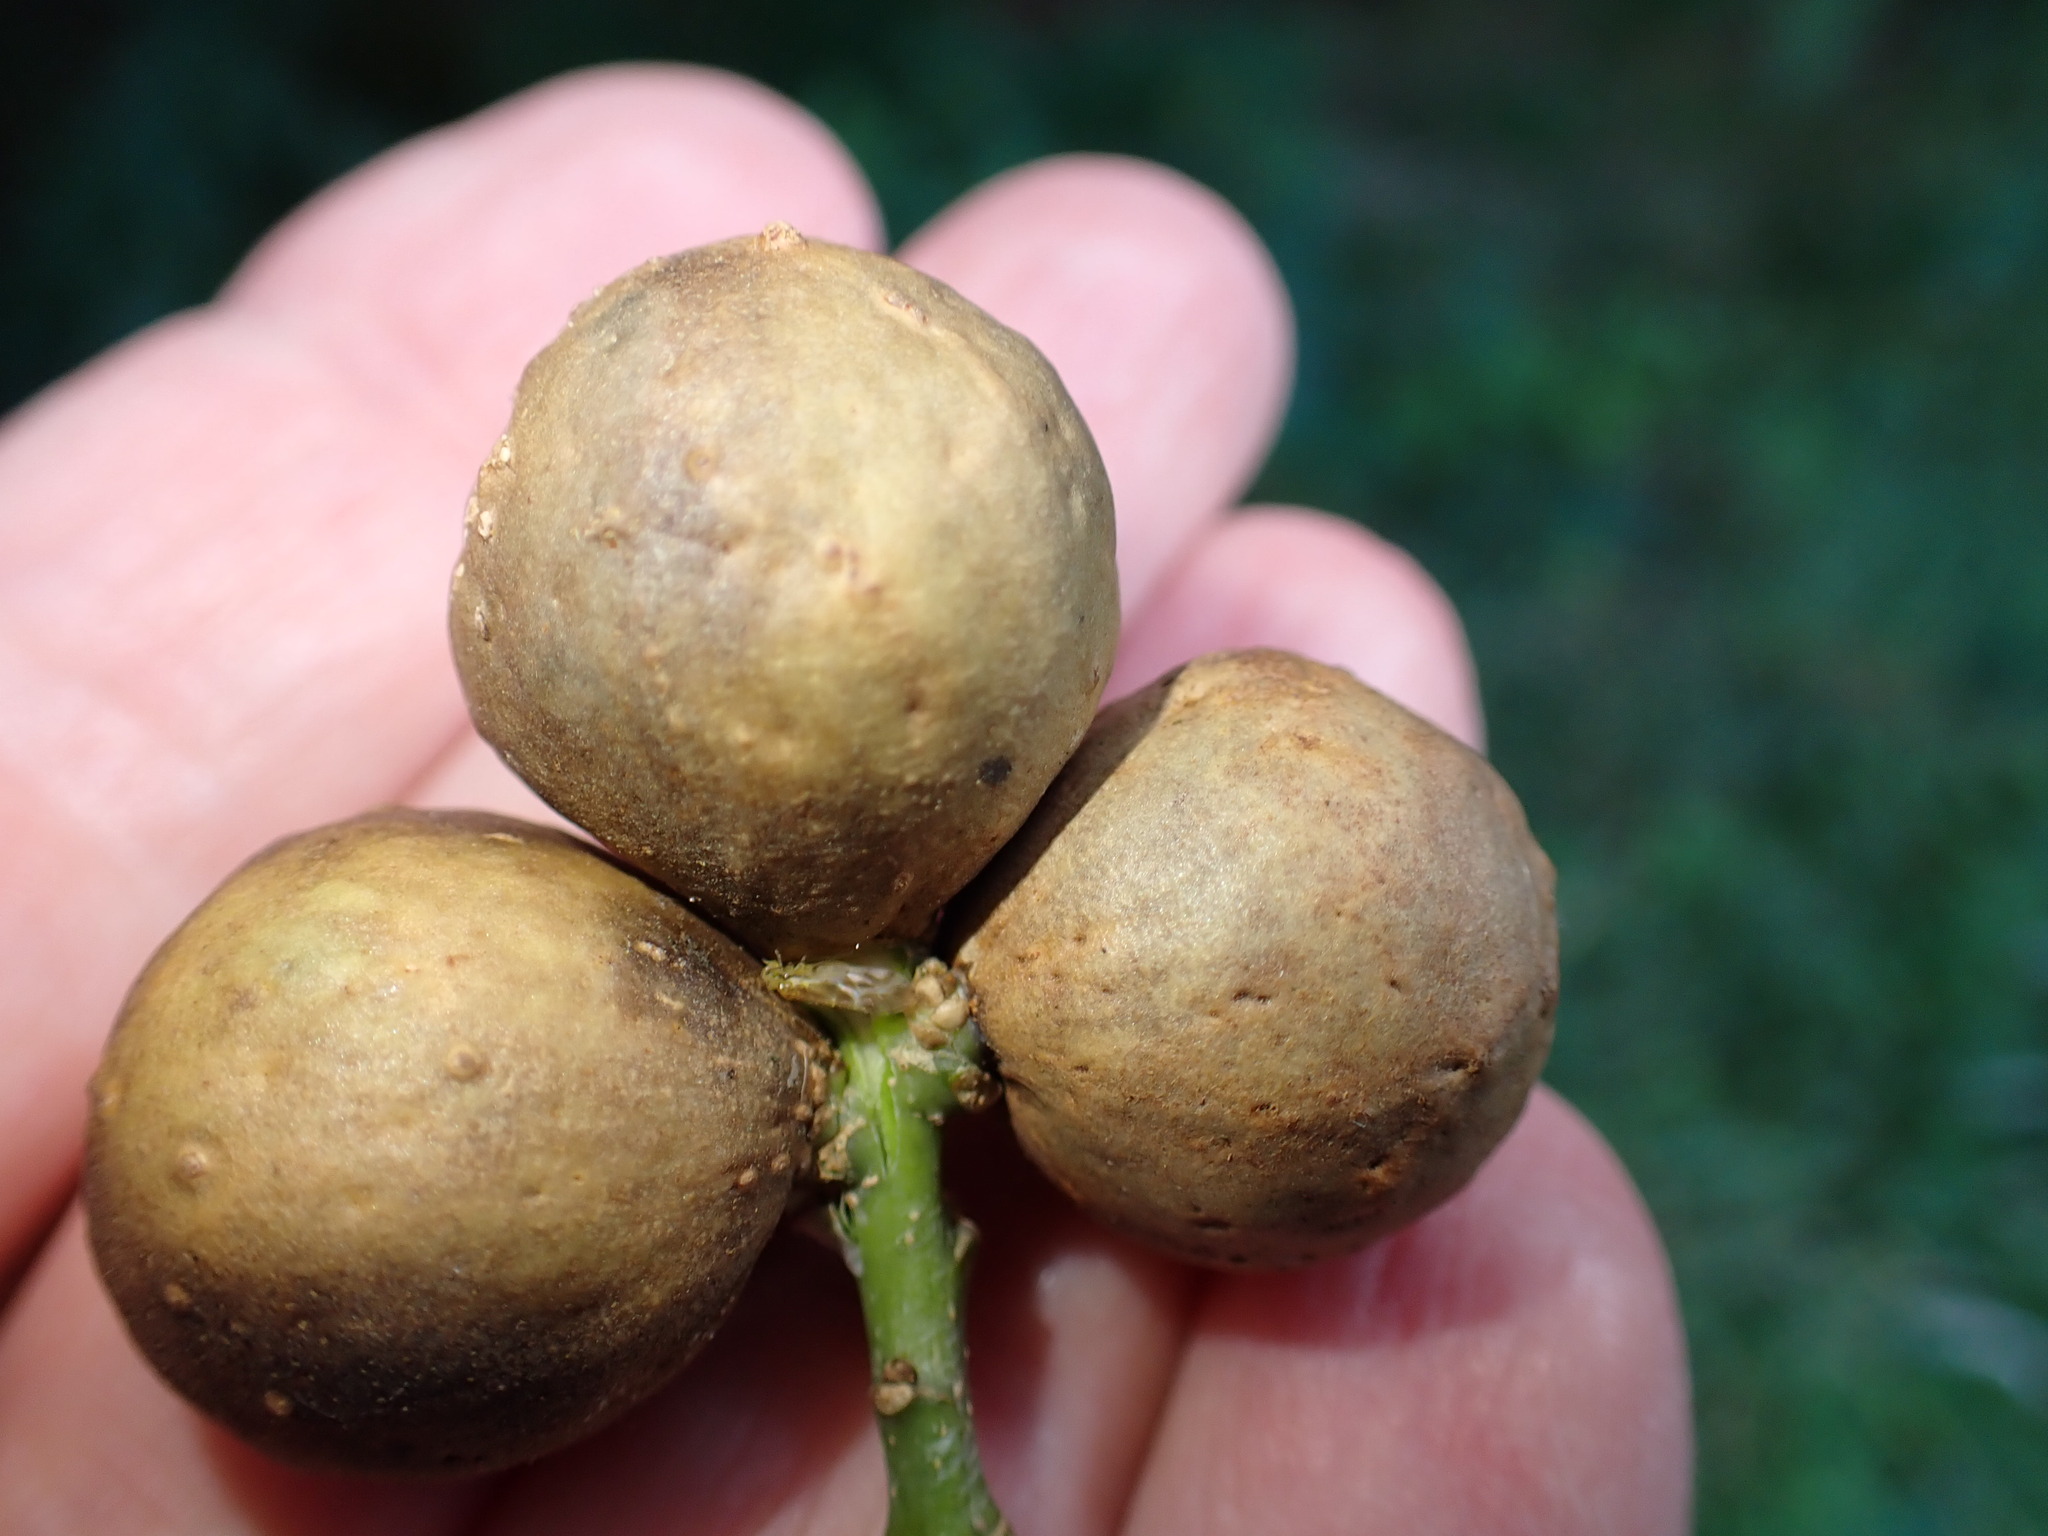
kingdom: Animalia
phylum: Arthropoda
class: Insecta
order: Hymenoptera
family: Cynipidae
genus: Andricus
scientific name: Andricus kollari
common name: Marble gall
